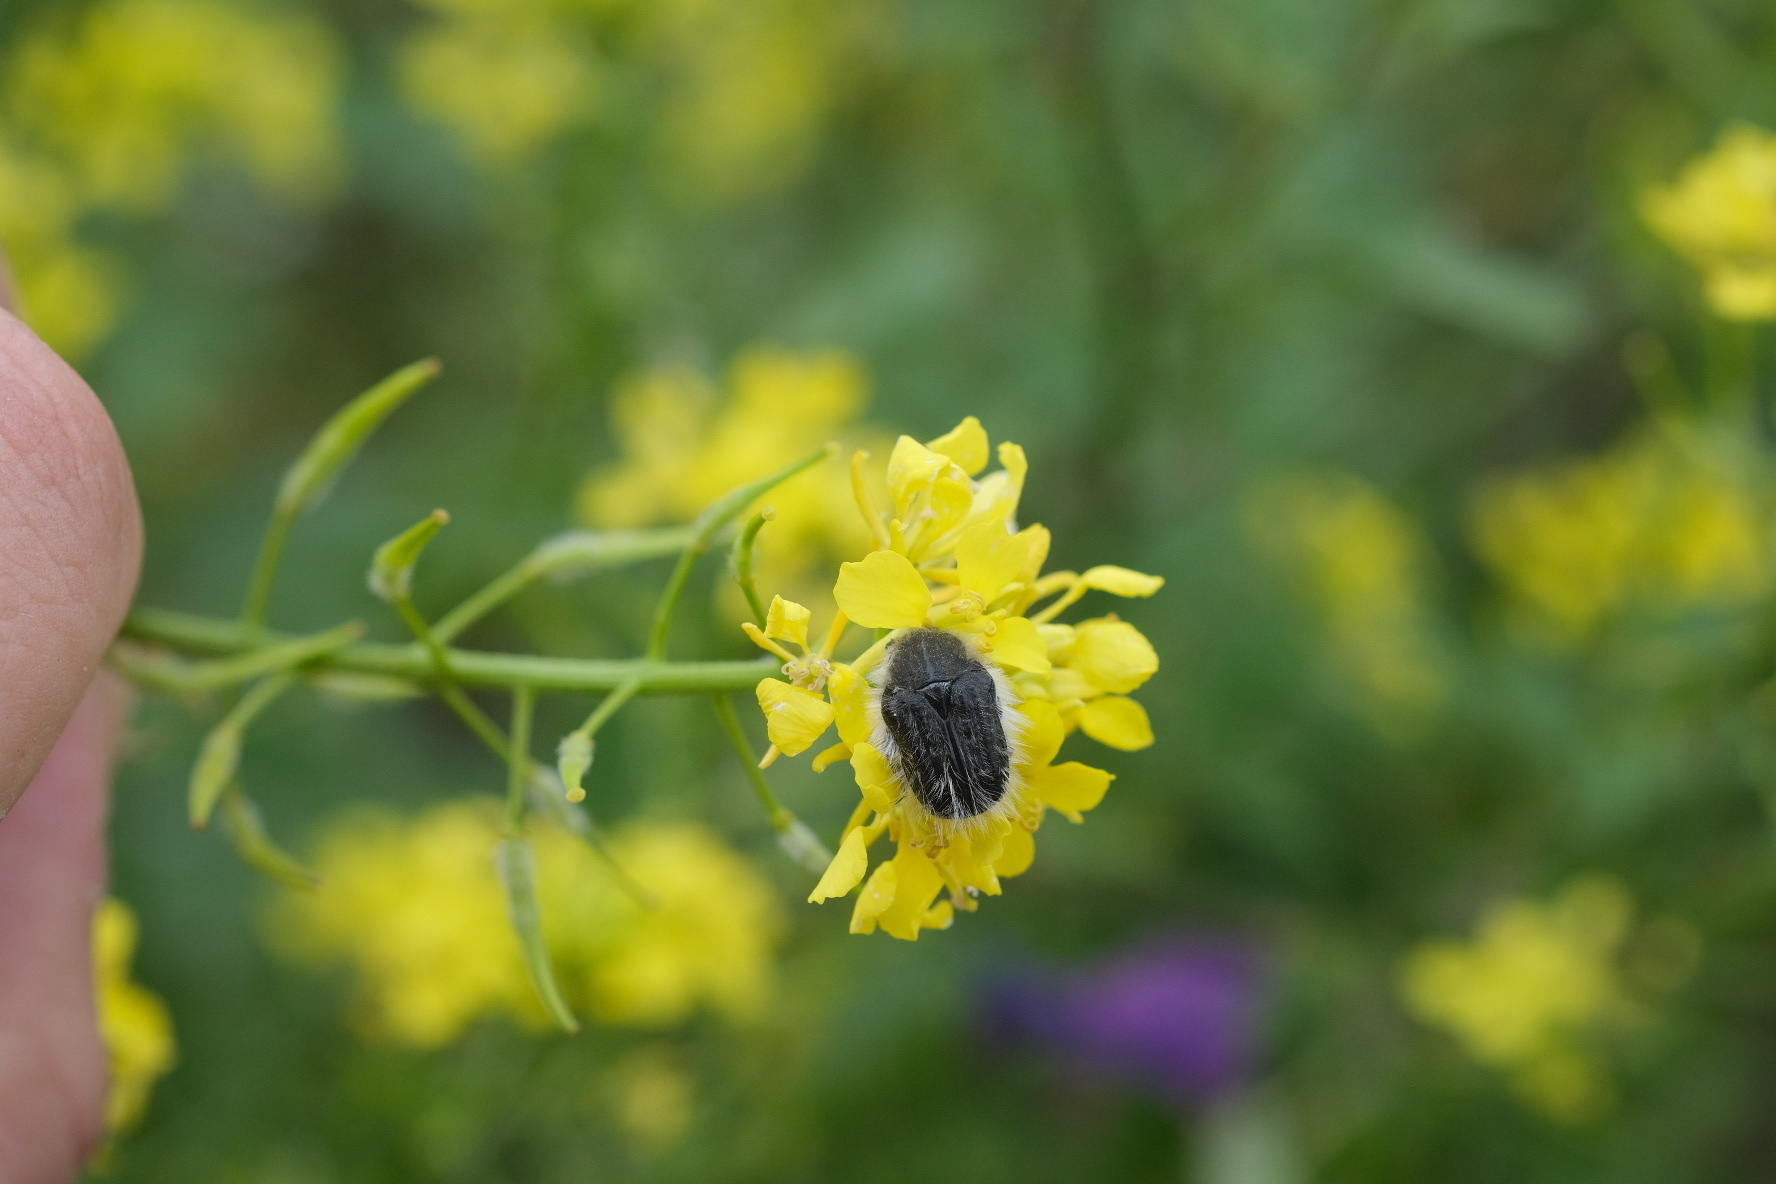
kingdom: Animalia
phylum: Arthropoda
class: Insecta
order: Coleoptera
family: Scarabaeidae
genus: Tropinota
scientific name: Tropinota squalida
